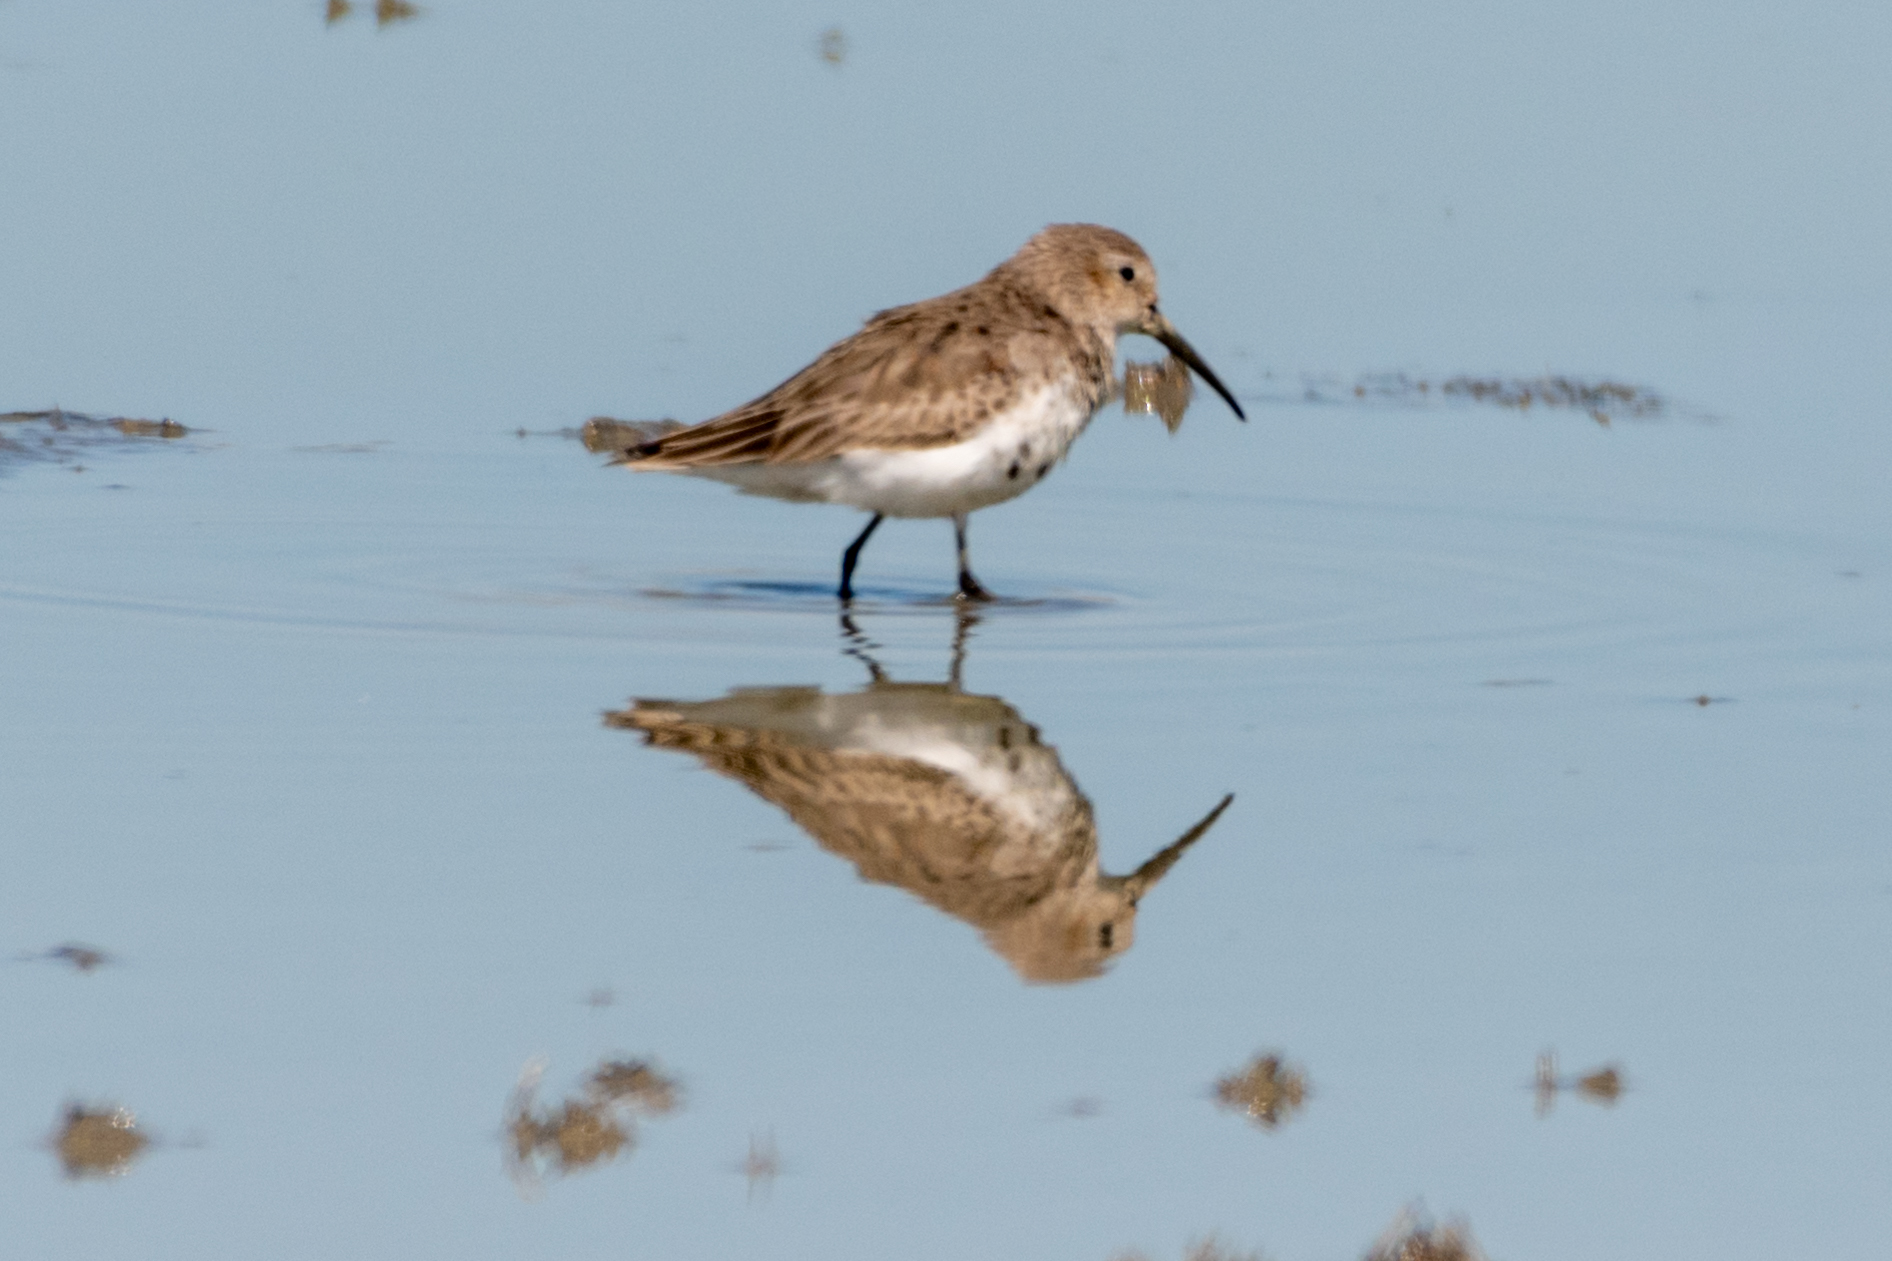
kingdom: Animalia
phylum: Chordata
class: Aves
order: Charadriiformes
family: Scolopacidae
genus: Calidris
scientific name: Calidris alpina
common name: Dunlin
